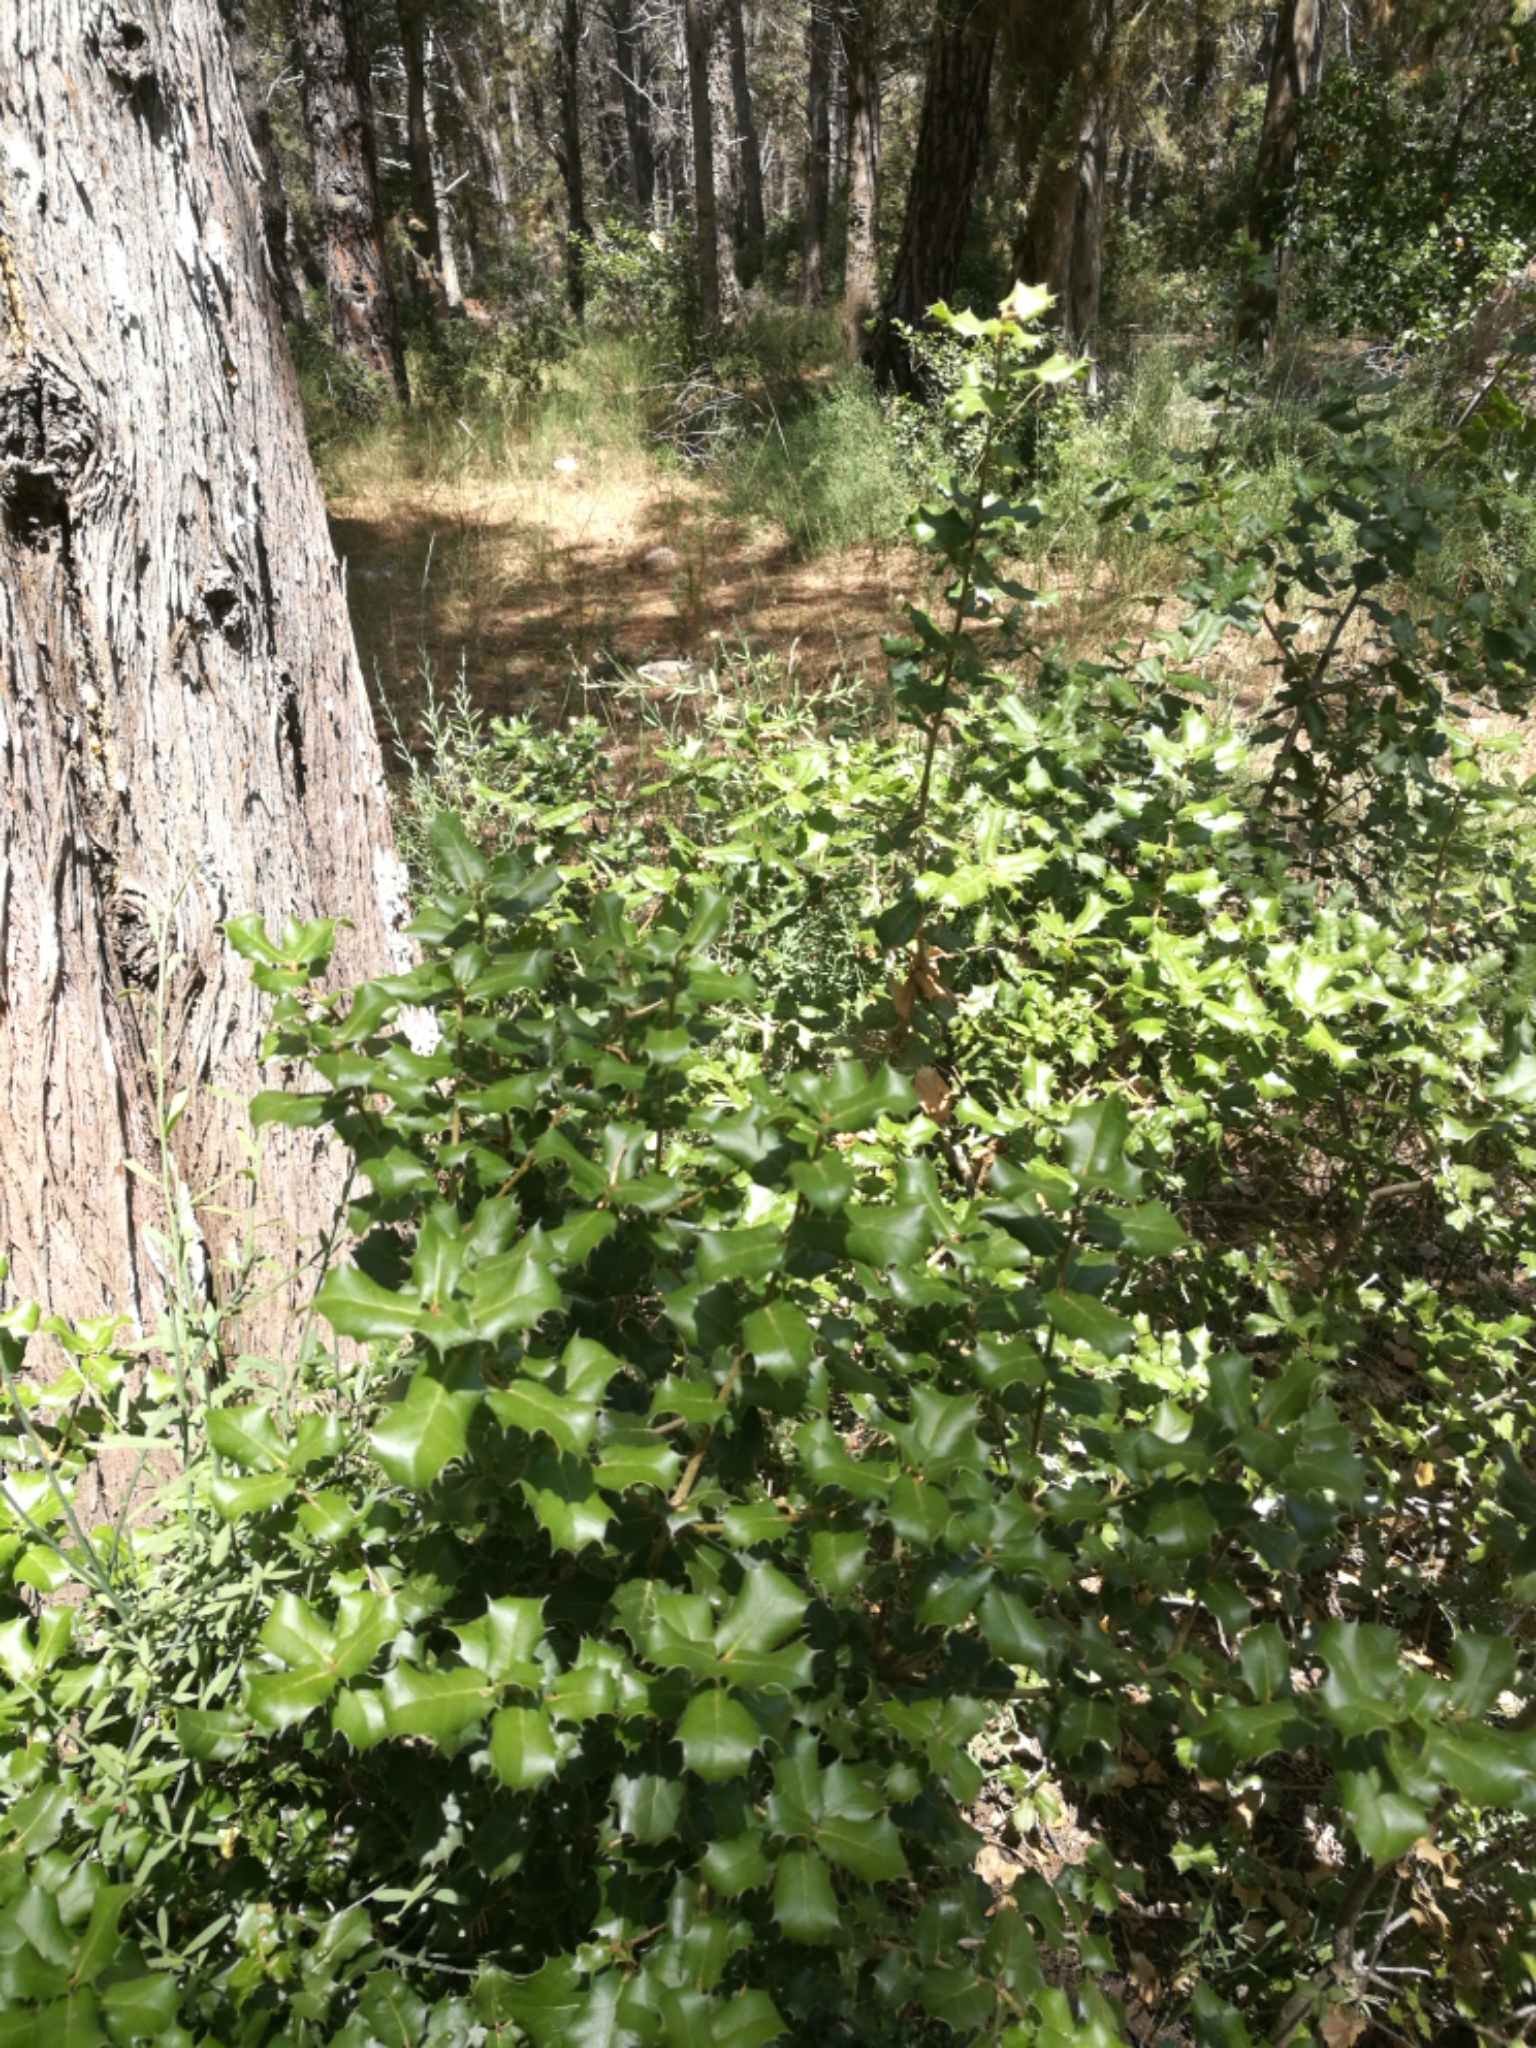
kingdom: Plantae
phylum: Tracheophyta
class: Magnoliopsida
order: Fagales
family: Fagaceae
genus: Quercus
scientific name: Quercus coccifera
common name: Kermes oak
